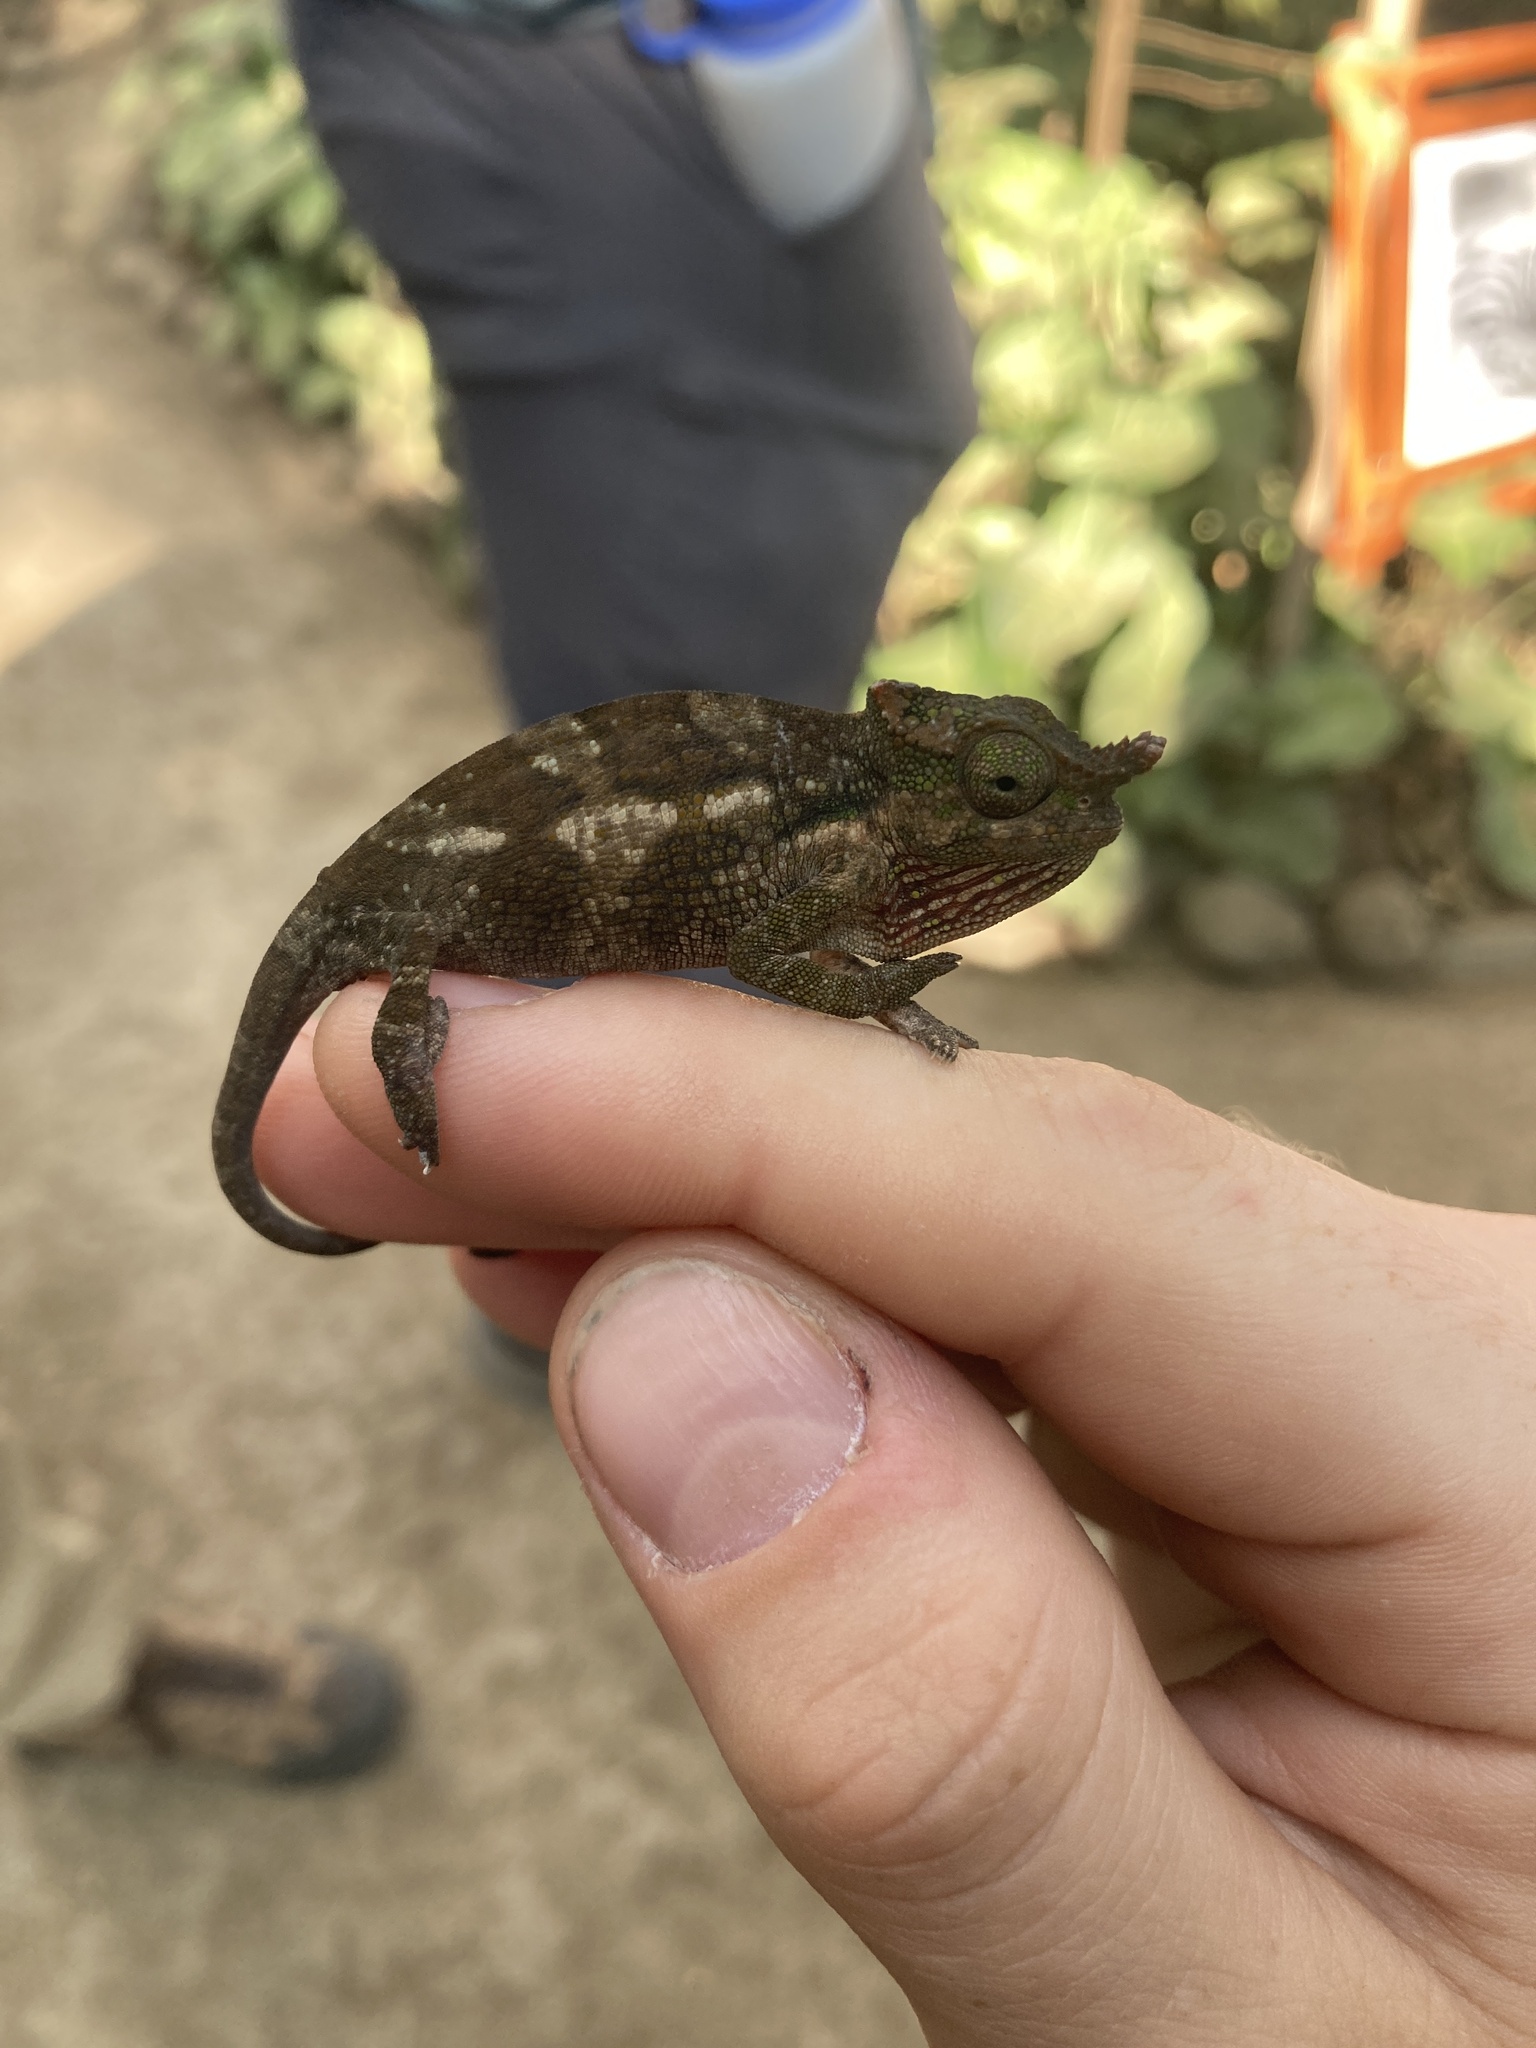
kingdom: Animalia
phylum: Chordata
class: Squamata
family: Chamaeleonidae
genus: Kinyongia
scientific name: Kinyongia tavetana
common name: Kilimanjaro blade-horned chameleon
